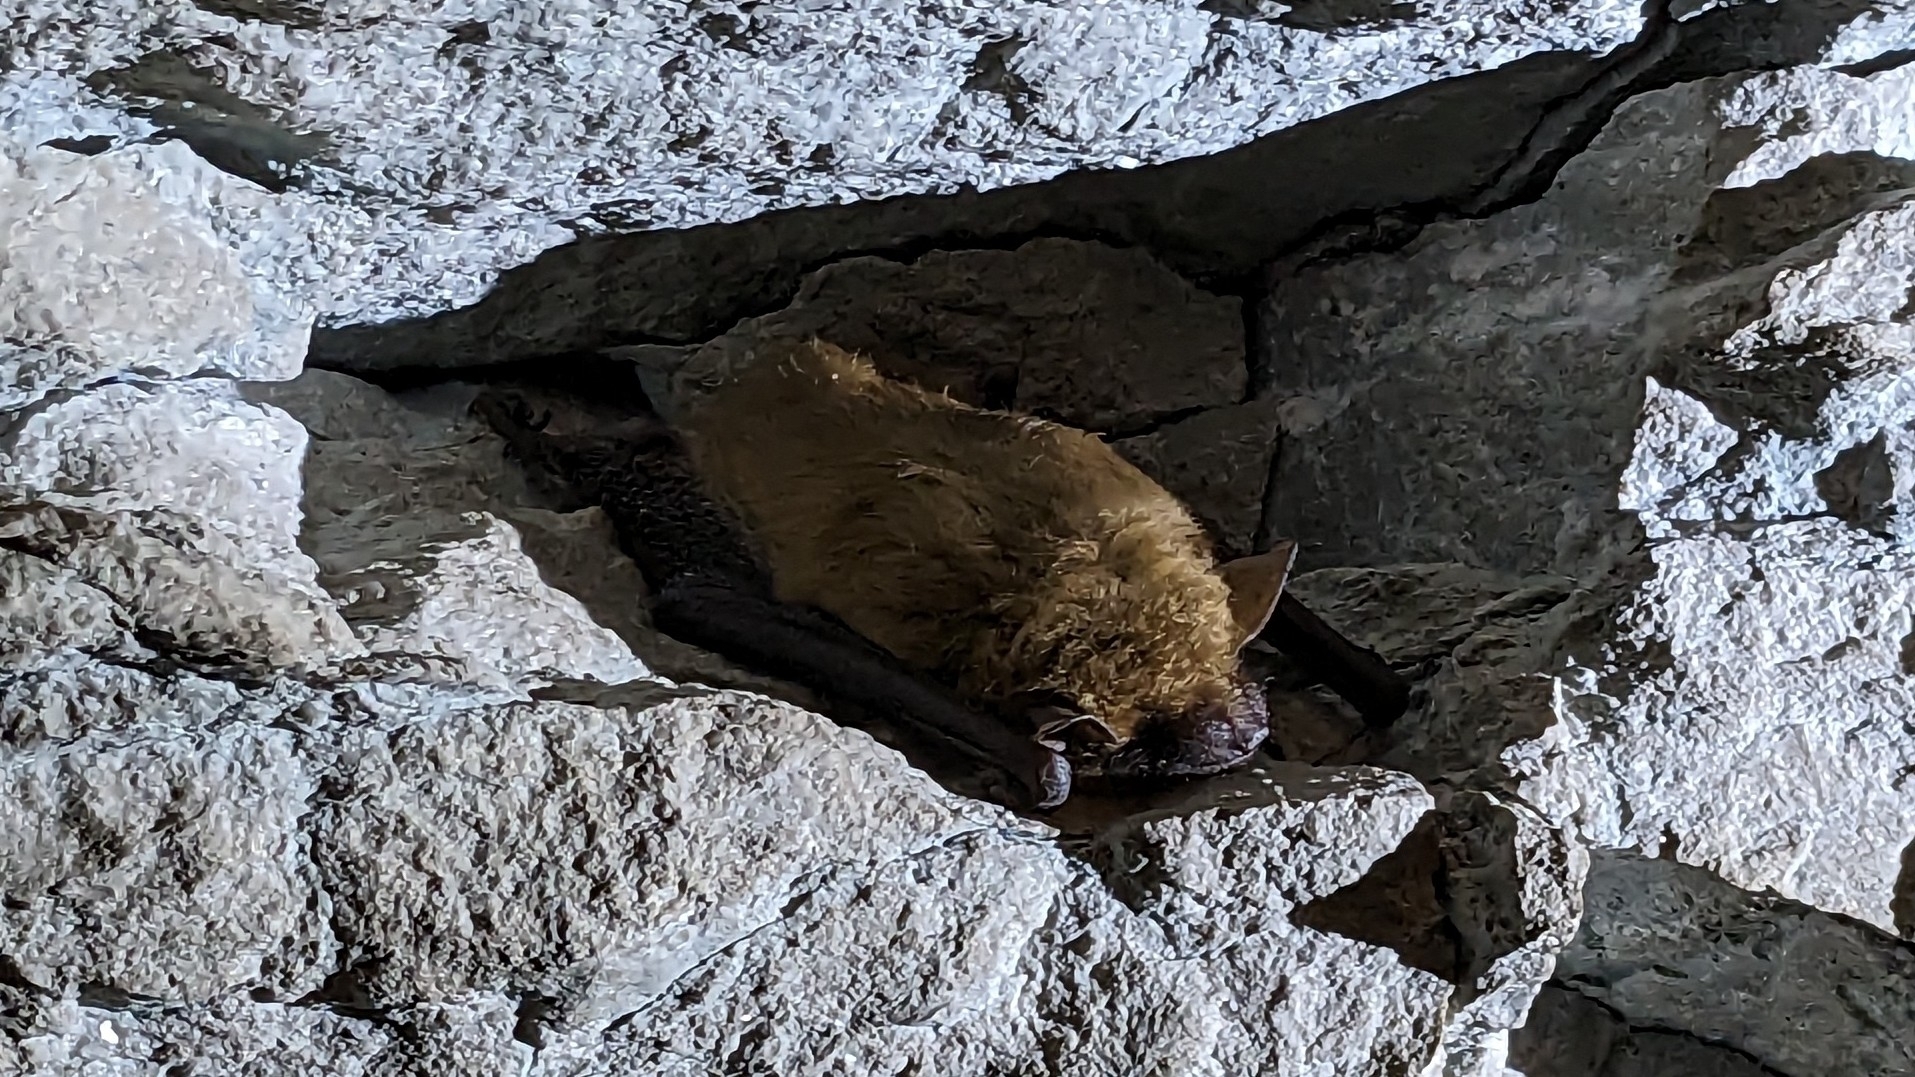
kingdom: Animalia
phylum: Chordata
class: Mammalia
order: Chiroptera
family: Vespertilionidae
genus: Eptesicus
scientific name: Eptesicus fuscus
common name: Big brown bat
